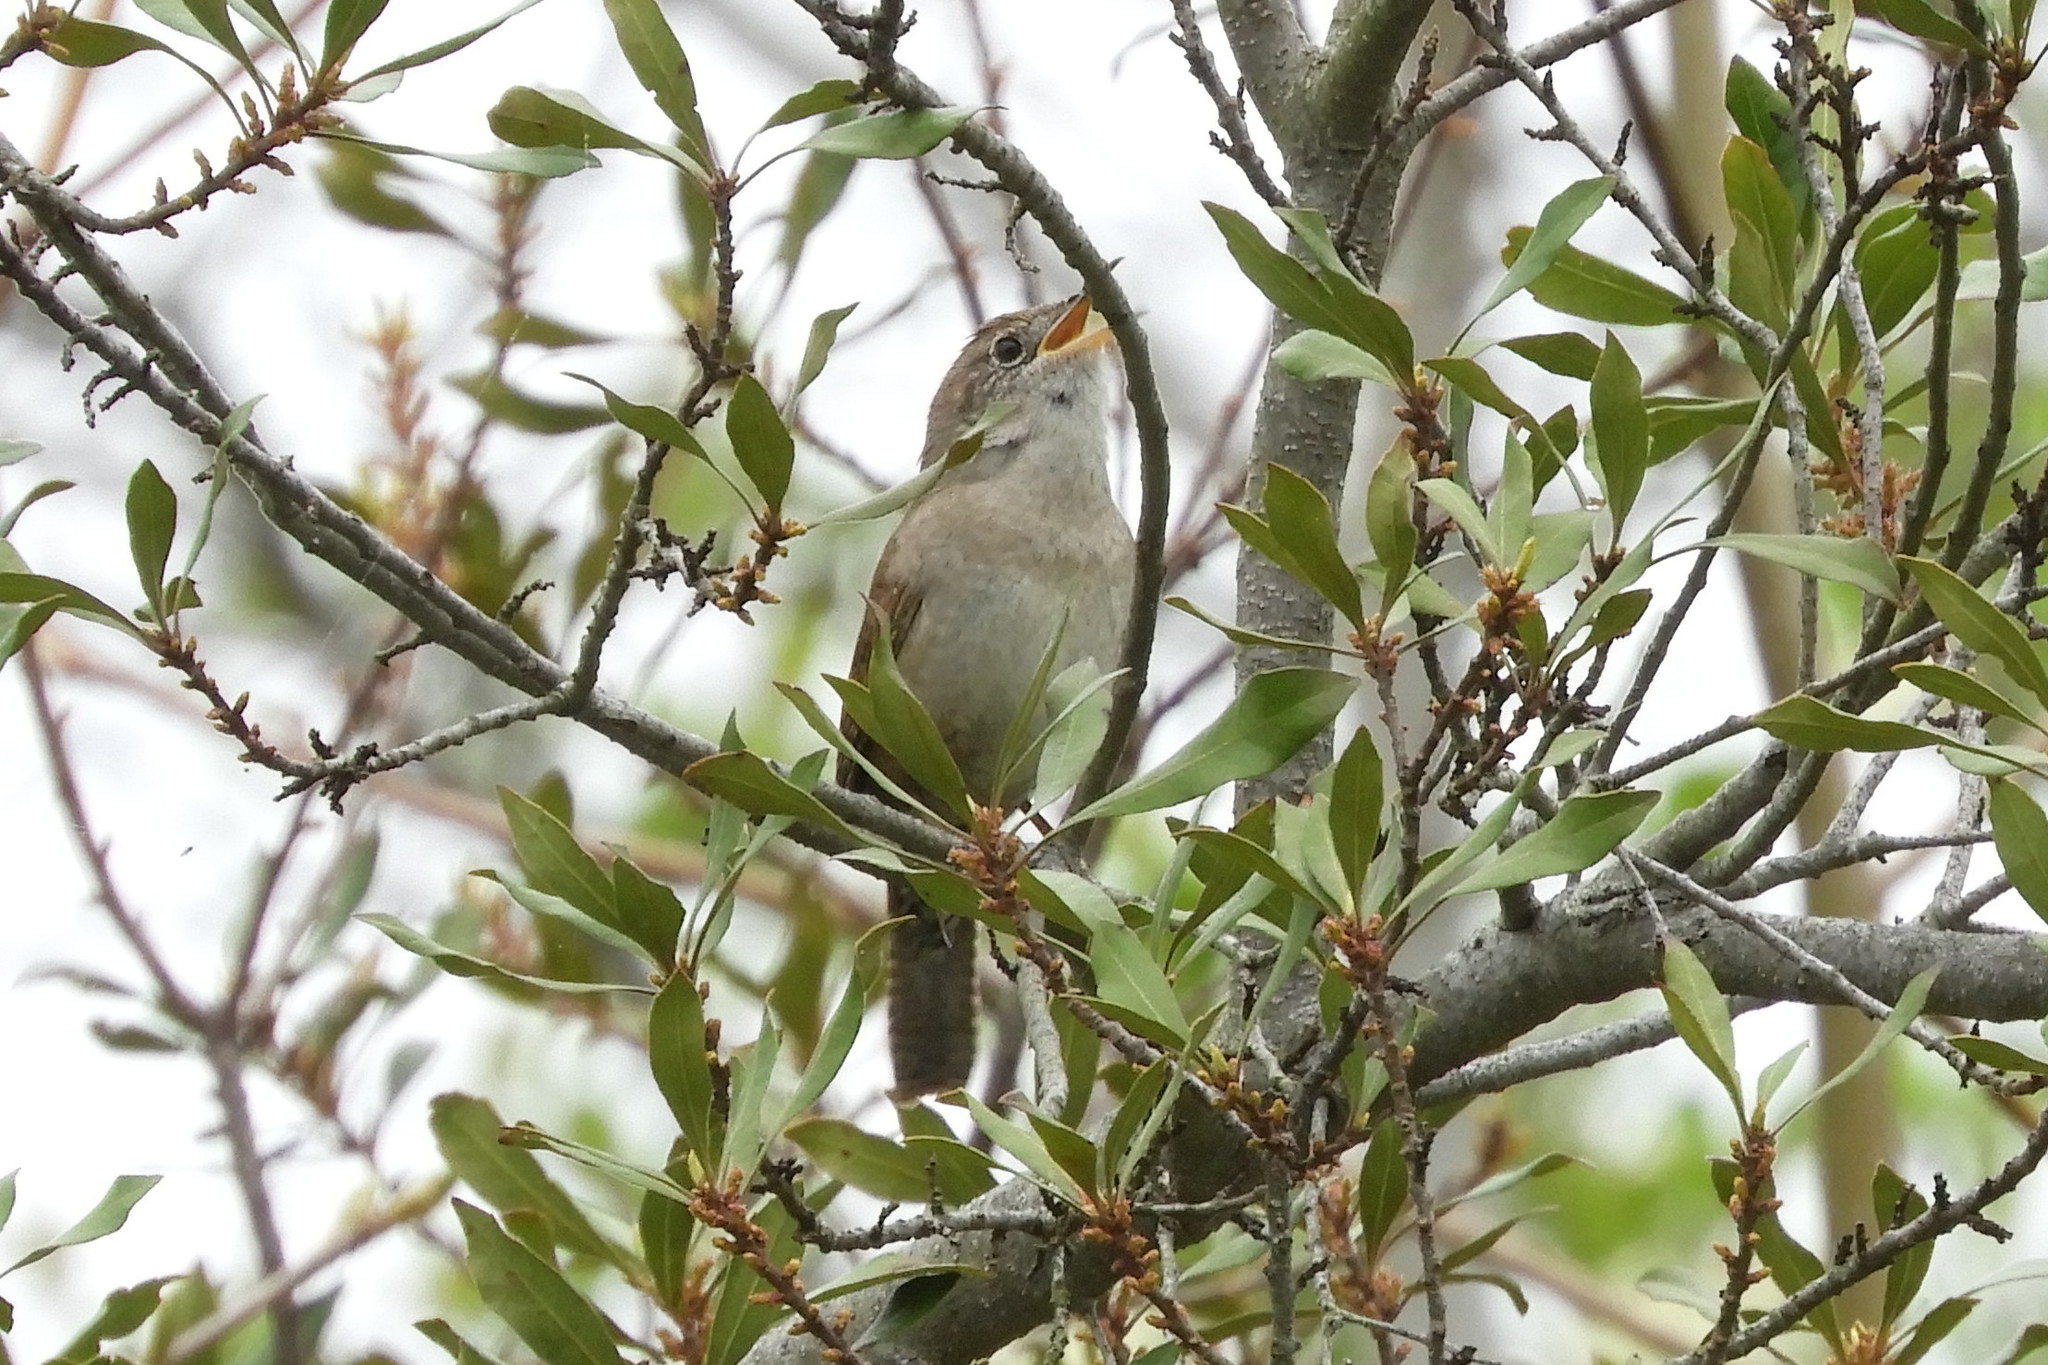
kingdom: Animalia
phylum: Chordata
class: Aves
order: Passeriformes
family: Troglodytidae
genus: Troglodytes
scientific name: Troglodytes aedon
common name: House wren
